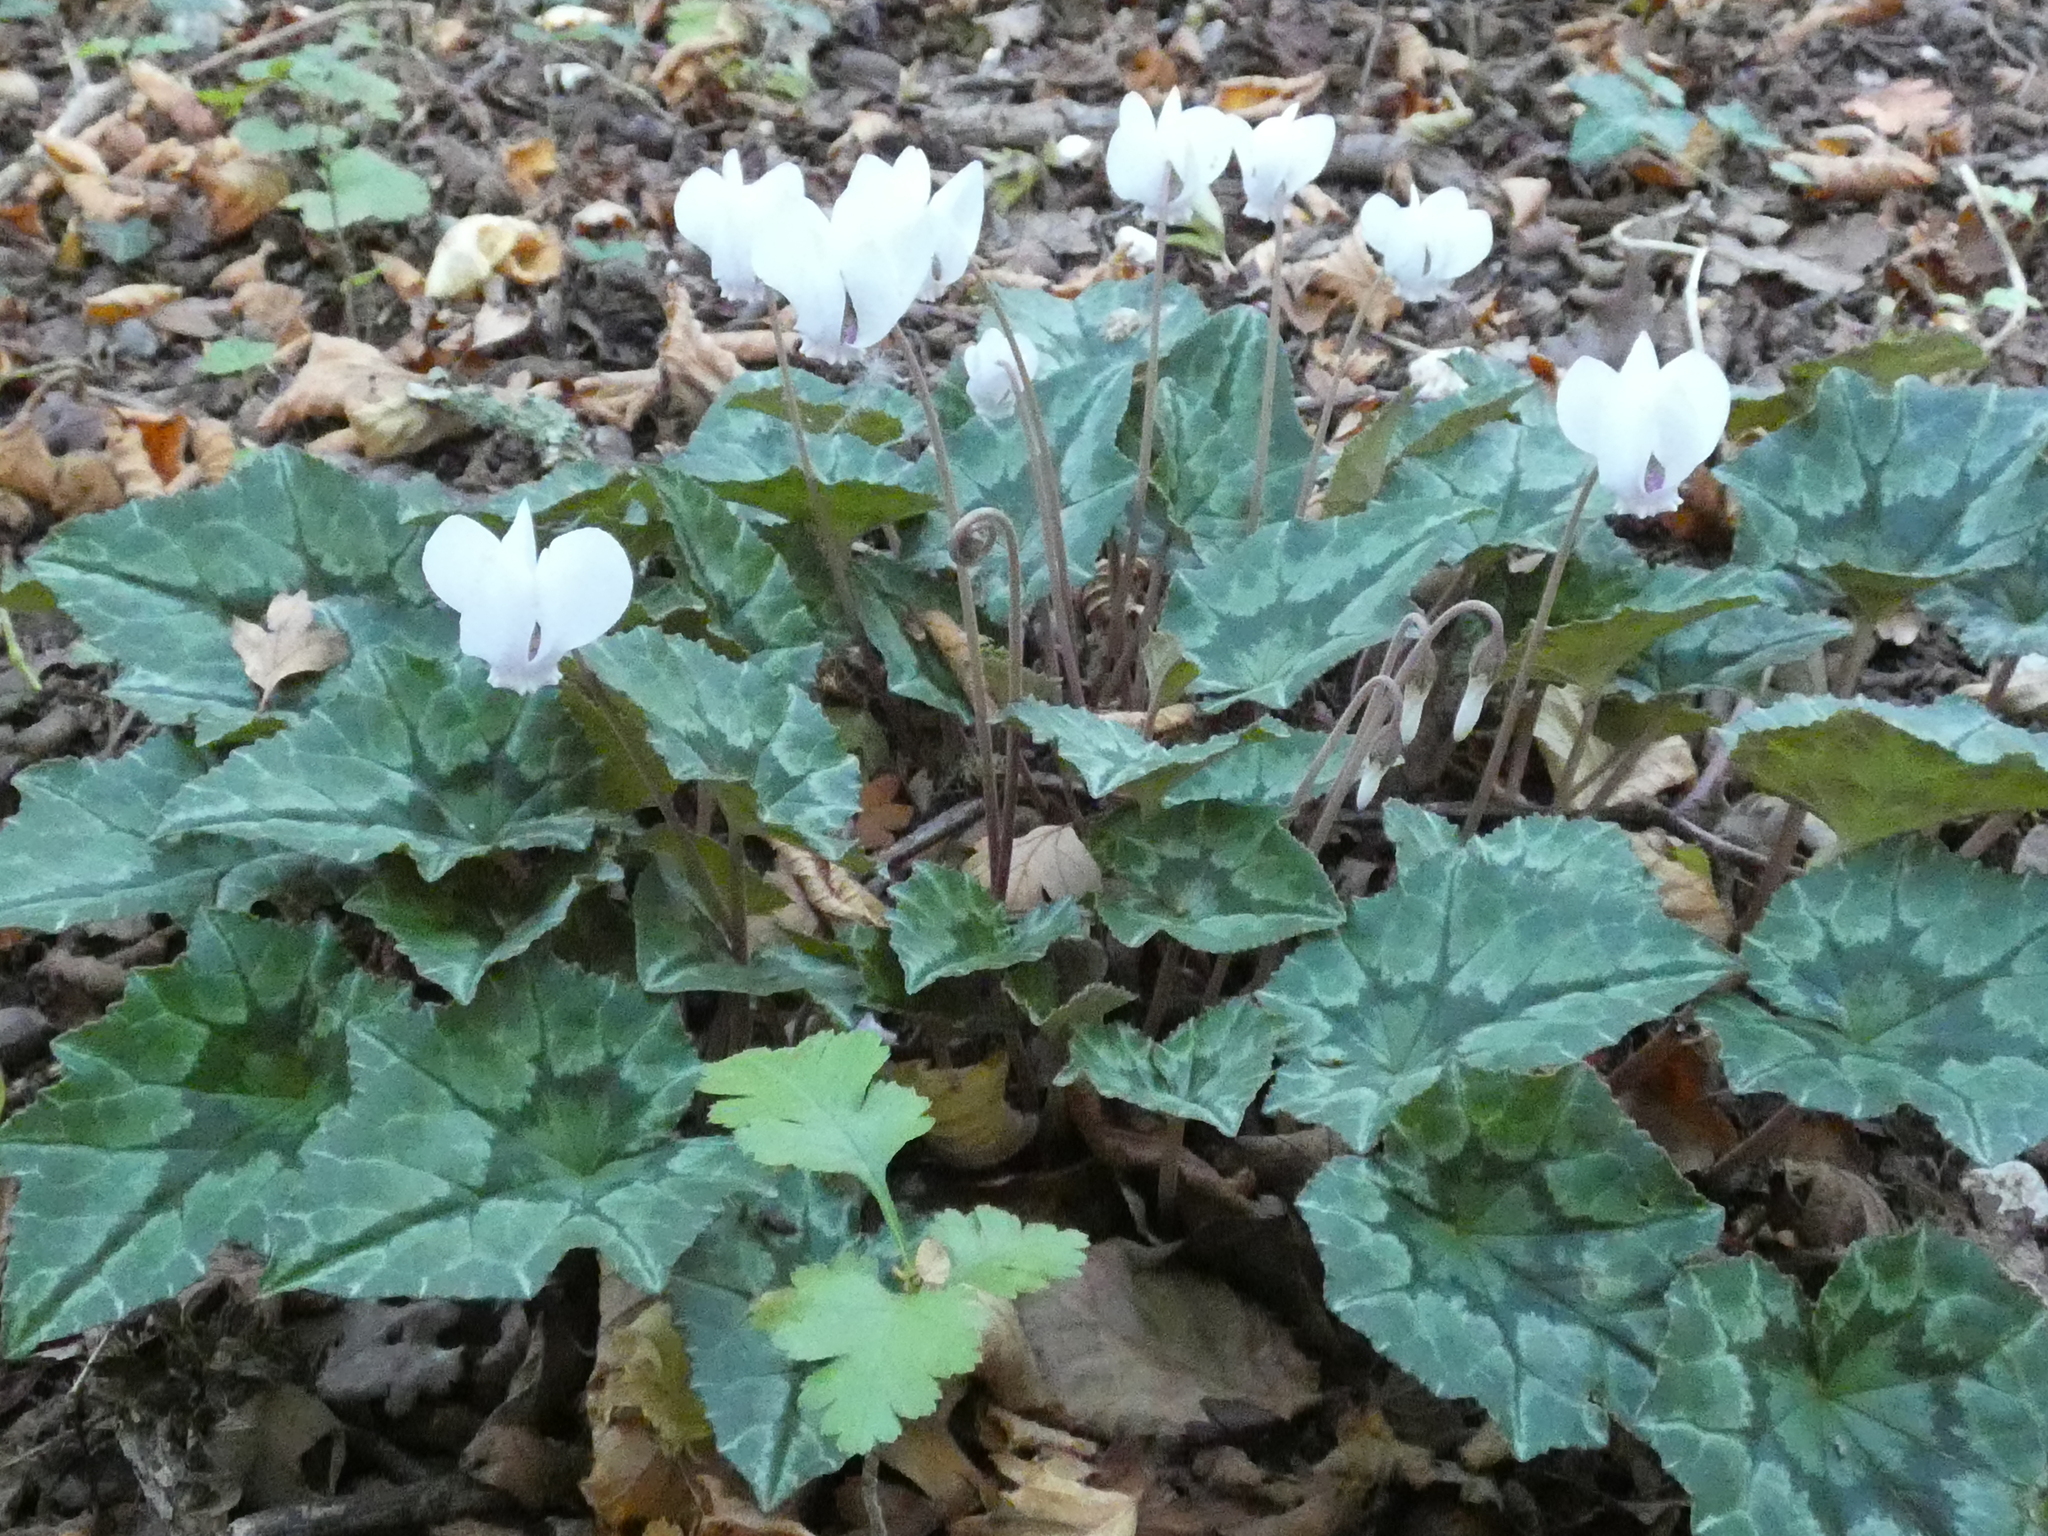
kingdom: Plantae
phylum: Tracheophyta
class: Magnoliopsida
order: Ericales
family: Primulaceae
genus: Cyclamen
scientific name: Cyclamen hederifolium
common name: Sowbread
